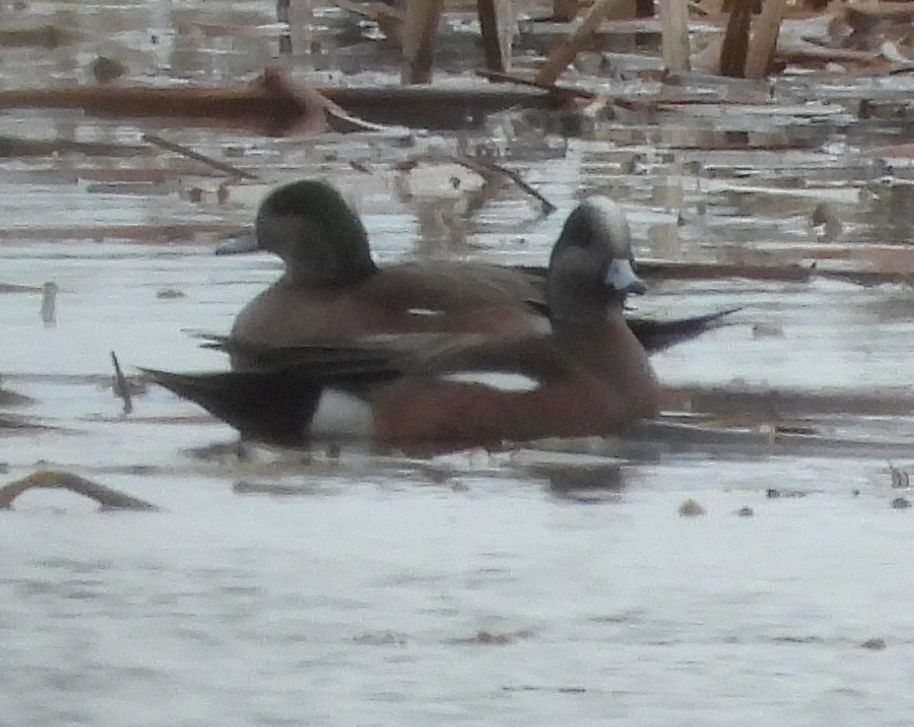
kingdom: Animalia
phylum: Chordata
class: Aves
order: Anseriformes
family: Anatidae
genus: Mareca
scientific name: Mareca americana
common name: American wigeon
